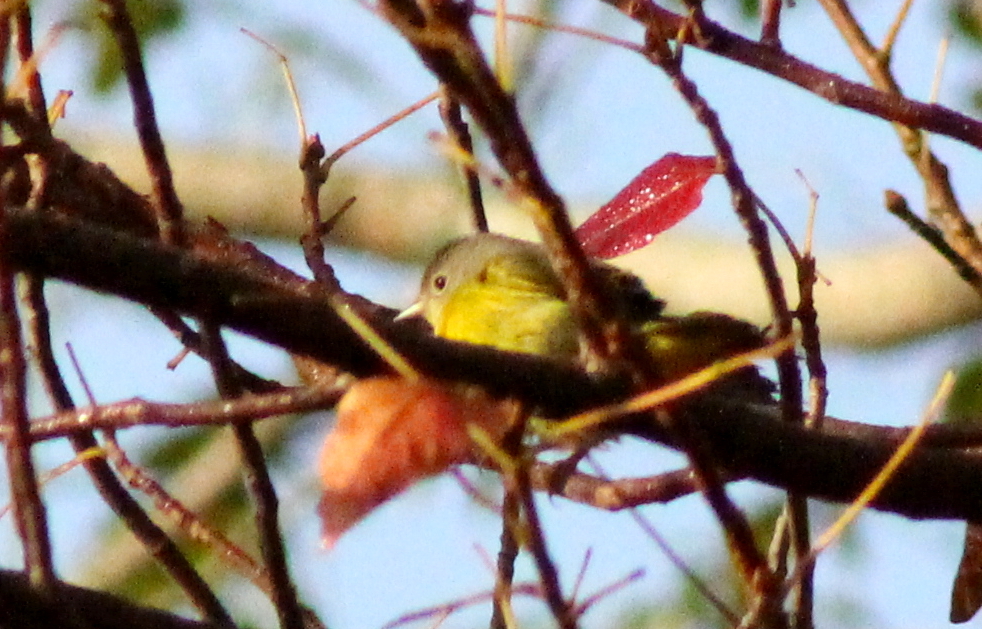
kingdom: Animalia
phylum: Chordata
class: Aves
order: Passeriformes
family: Parulidae
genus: Leiothlypis
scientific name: Leiothlypis ruficapilla
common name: Nashville warbler
